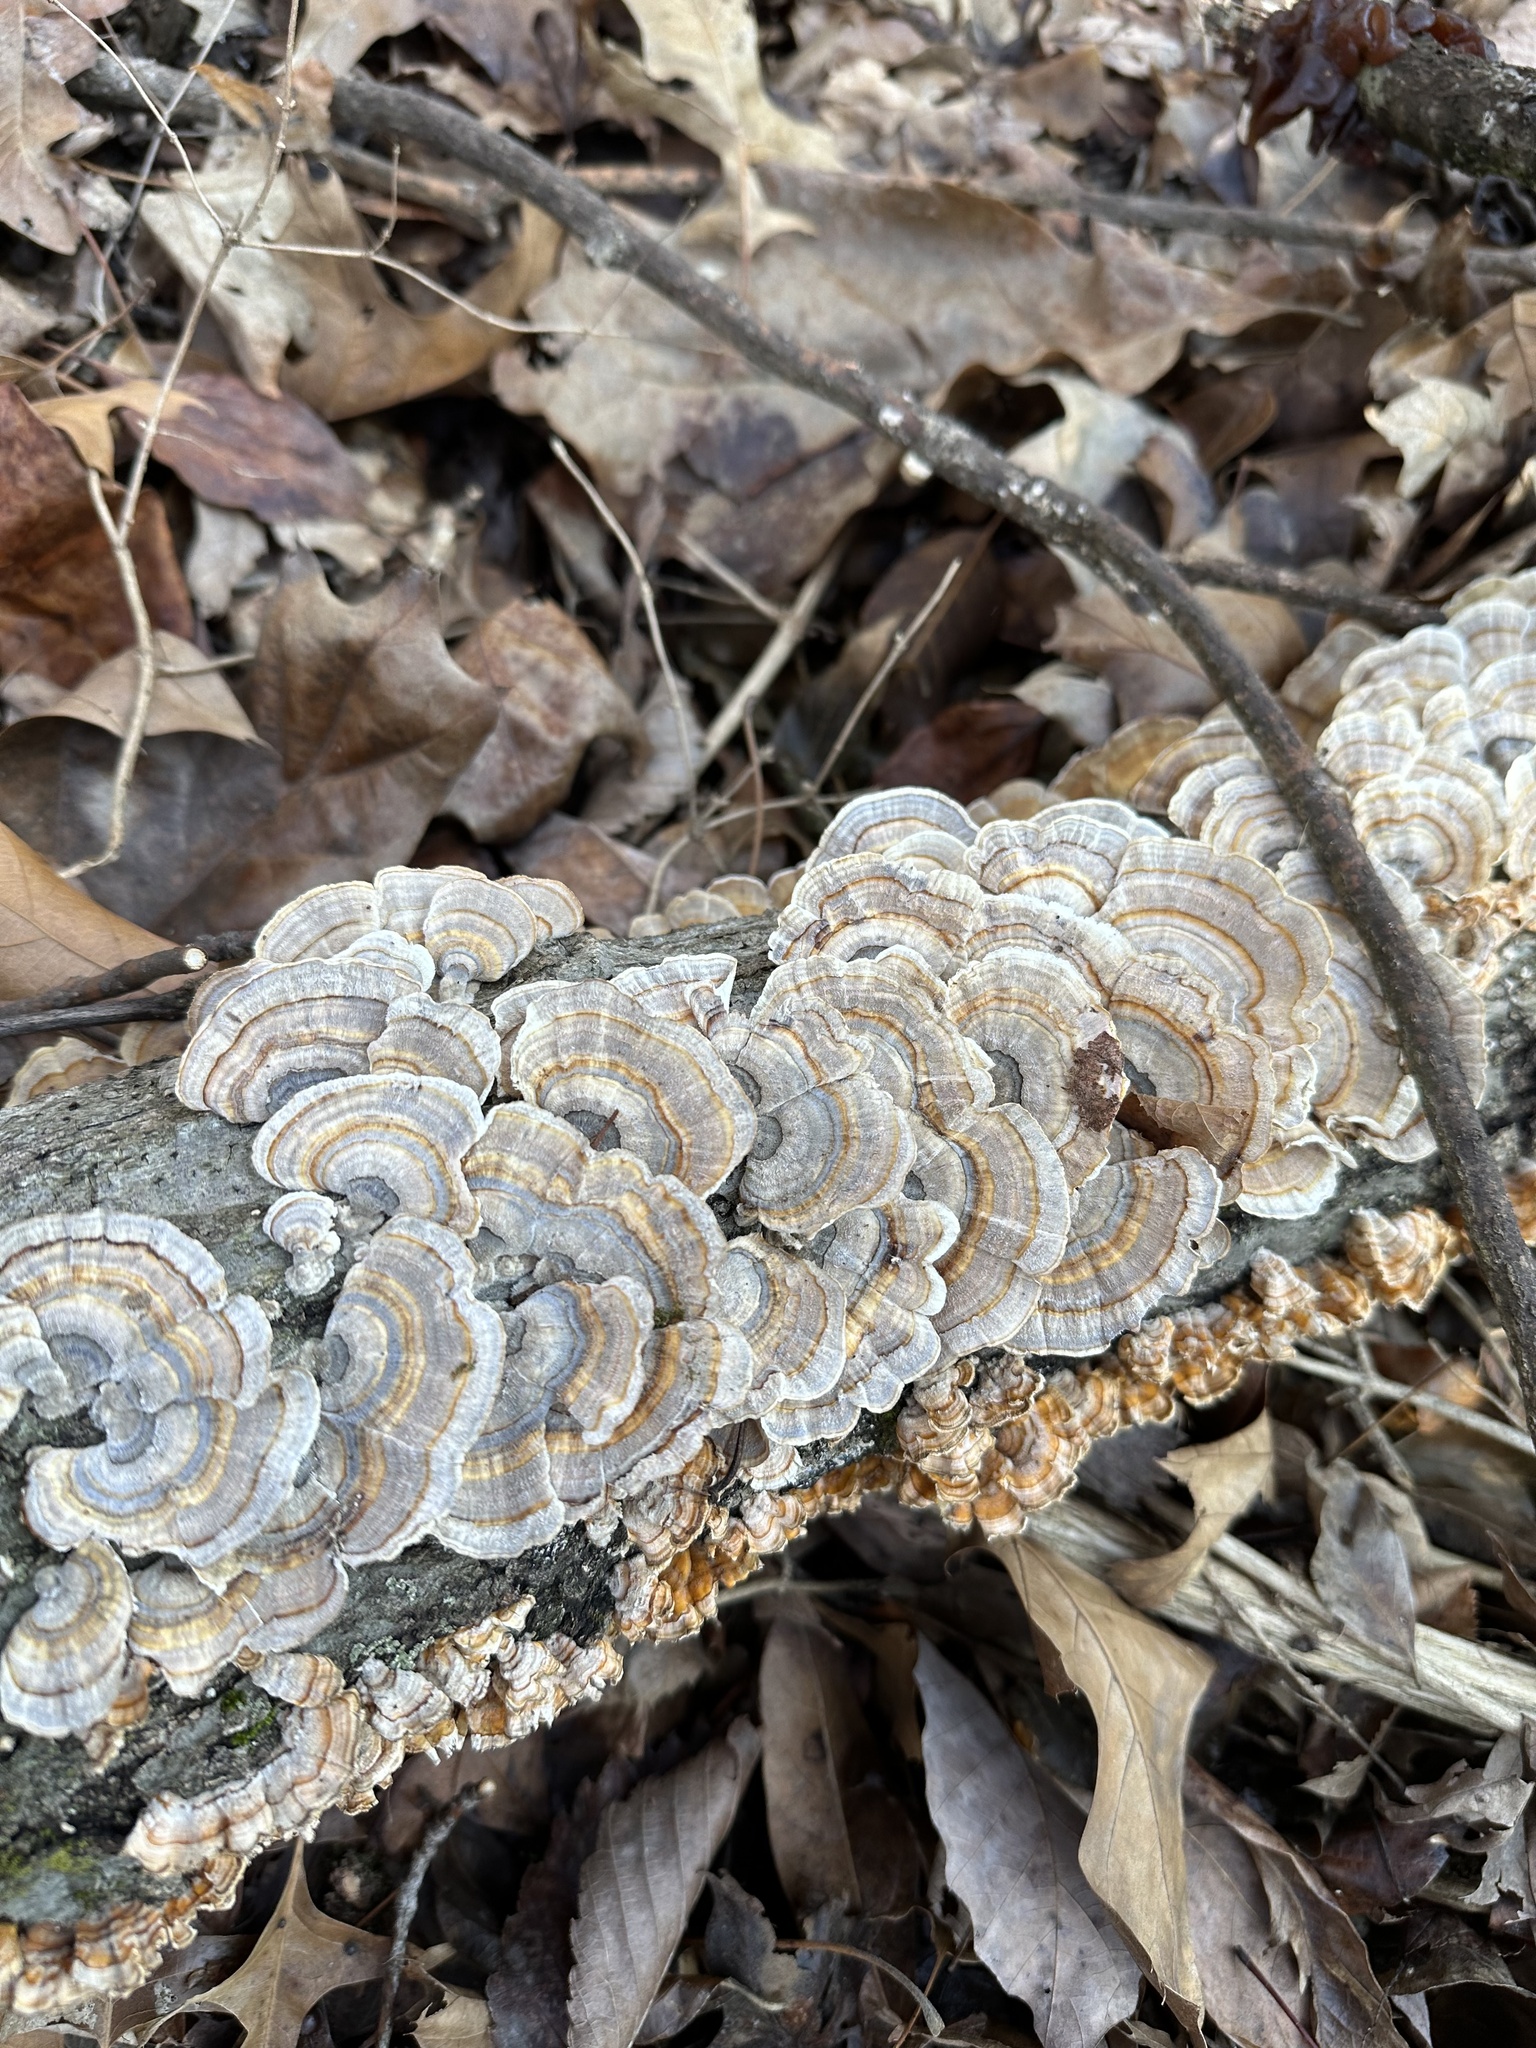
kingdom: Fungi
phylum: Basidiomycota
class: Agaricomycetes
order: Polyporales
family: Polyporaceae
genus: Trametes
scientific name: Trametes versicolor
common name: Turkeytail
